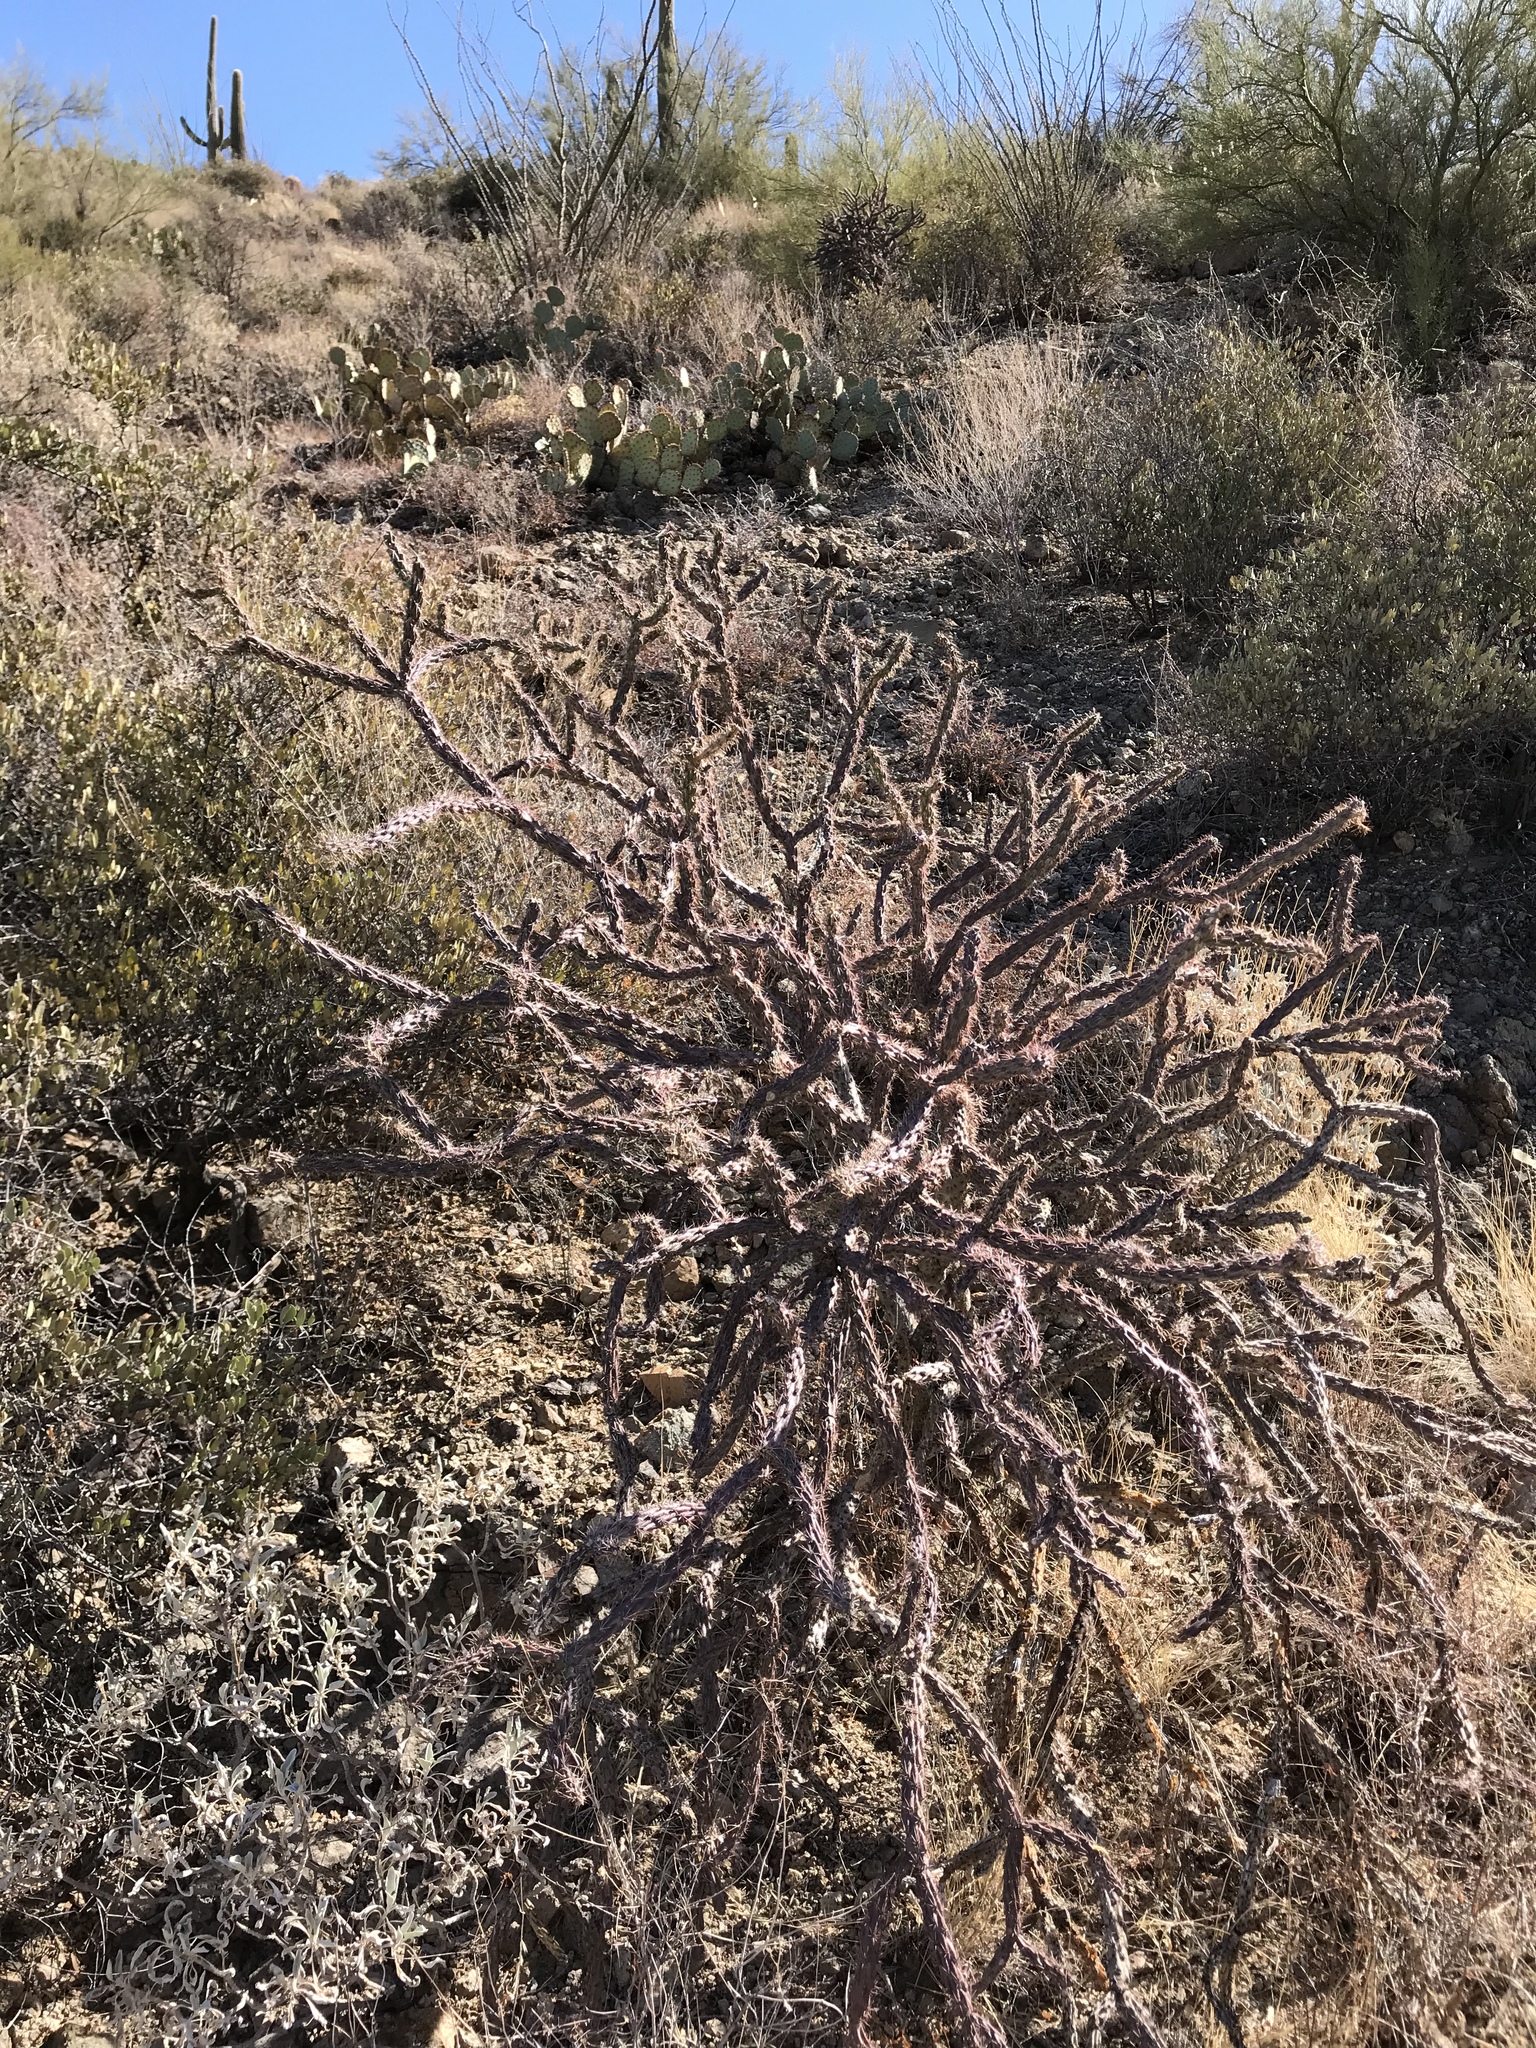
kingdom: Plantae
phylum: Tracheophyta
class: Magnoliopsida
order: Caryophyllales
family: Cactaceae
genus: Cylindropuntia
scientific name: Cylindropuntia thurberi
